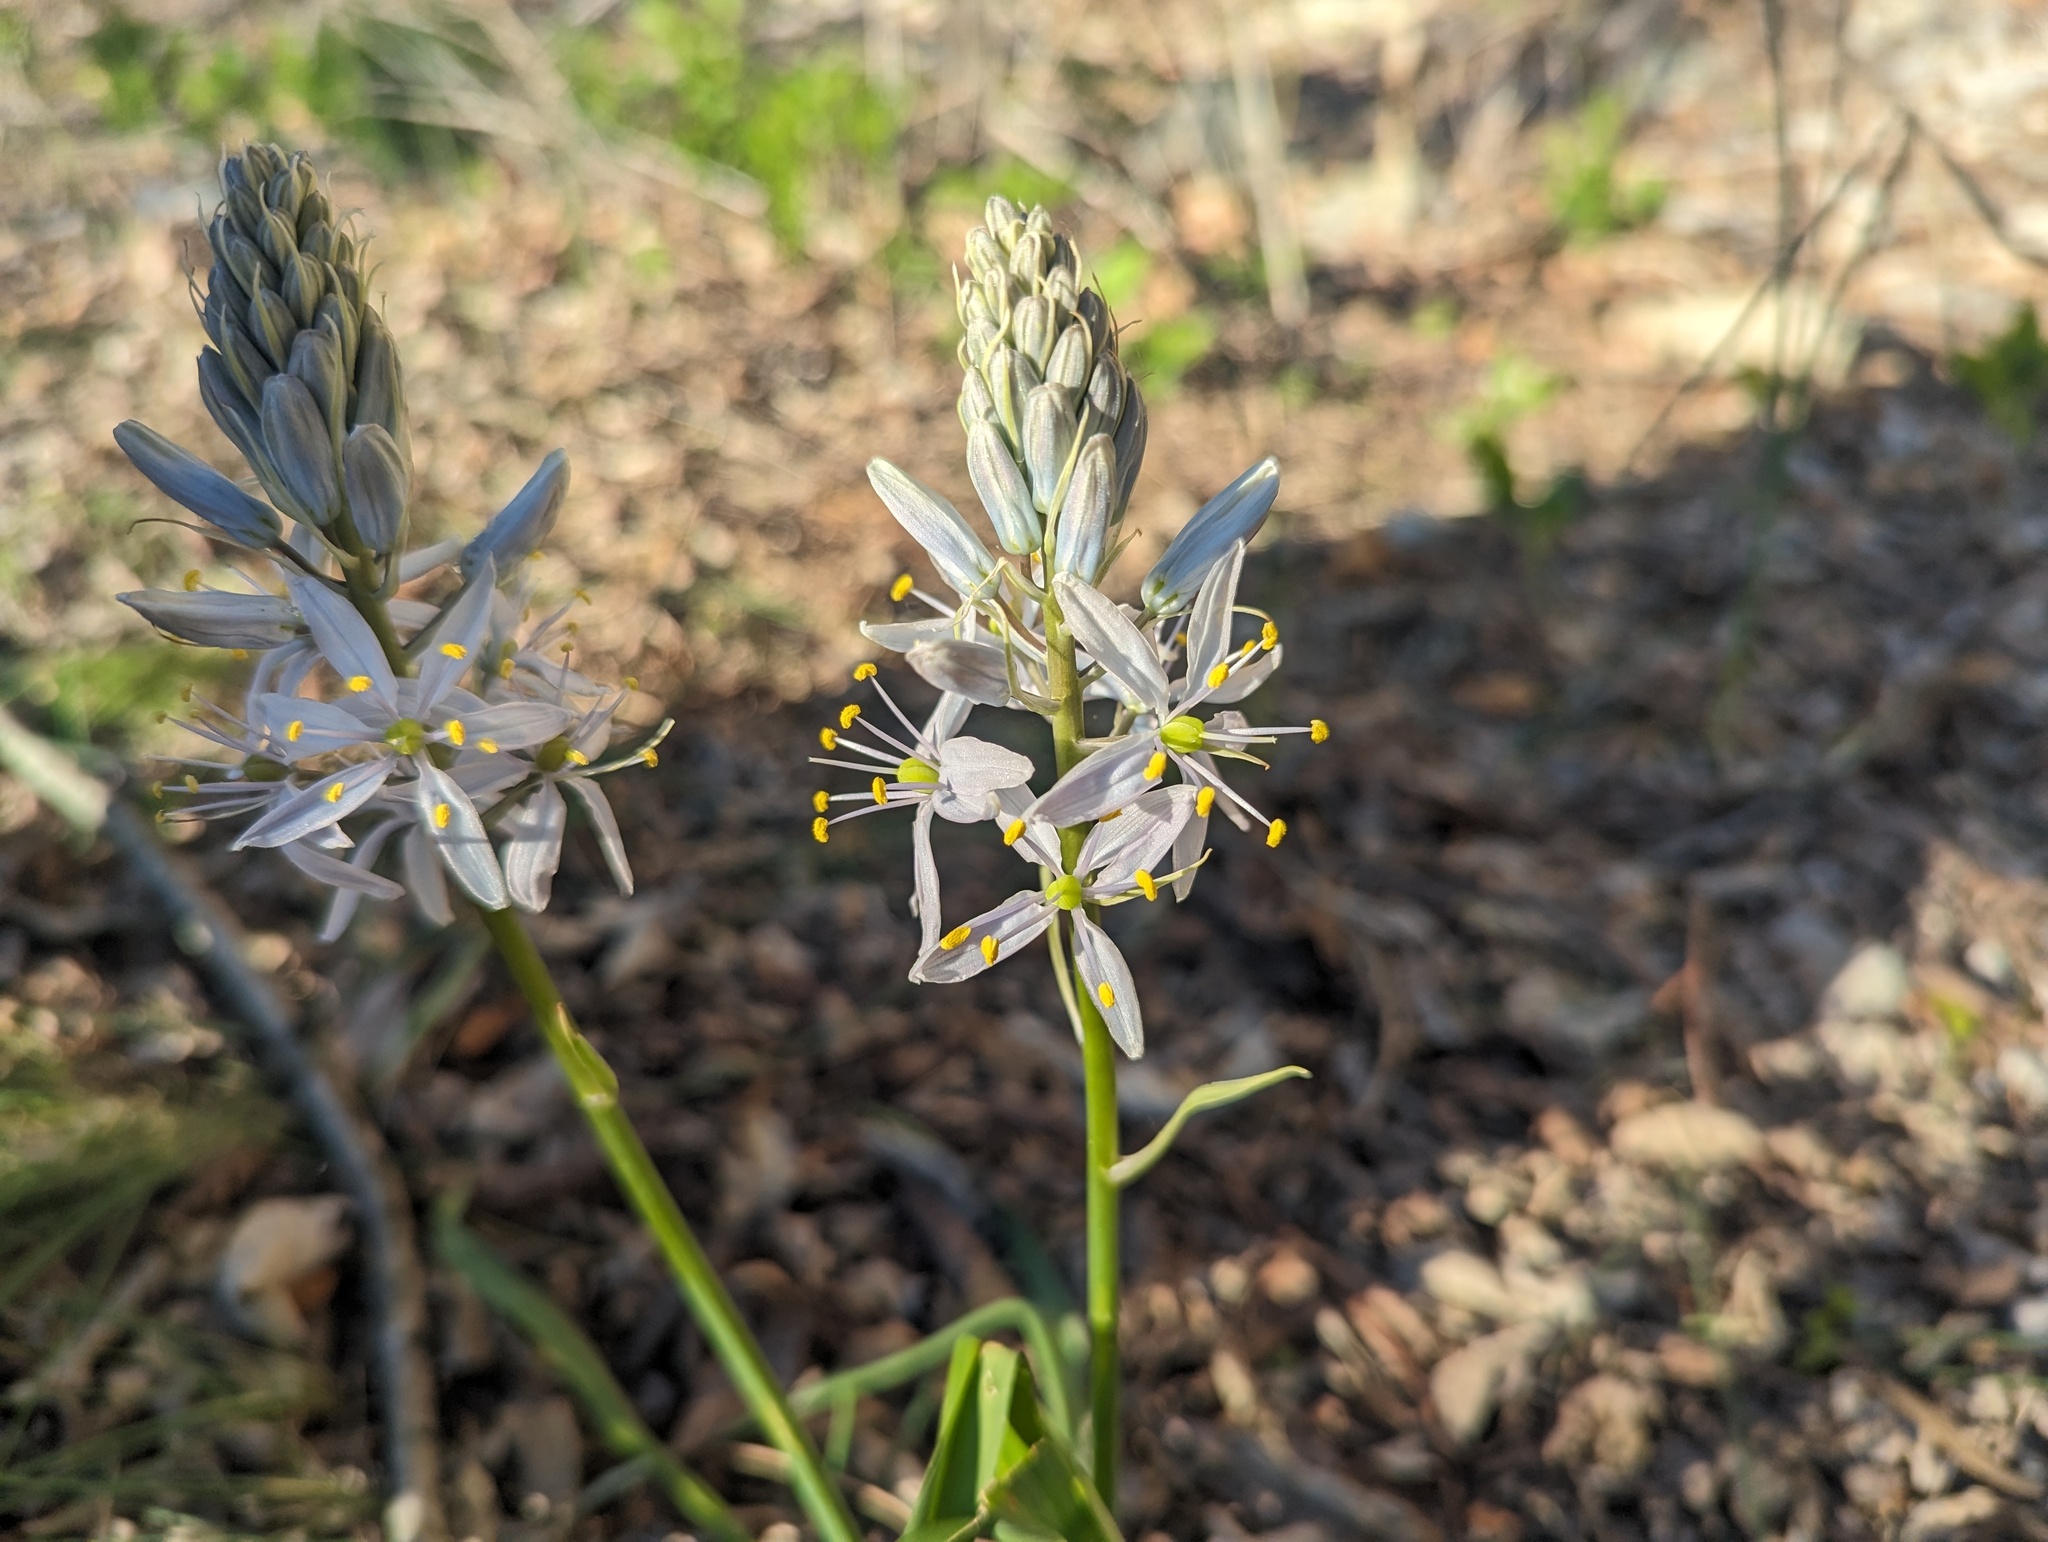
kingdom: Plantae
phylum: Tracheophyta
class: Liliopsida
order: Asparagales
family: Asparagaceae
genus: Camassia
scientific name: Camassia scilloides
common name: Wild hyacinth
